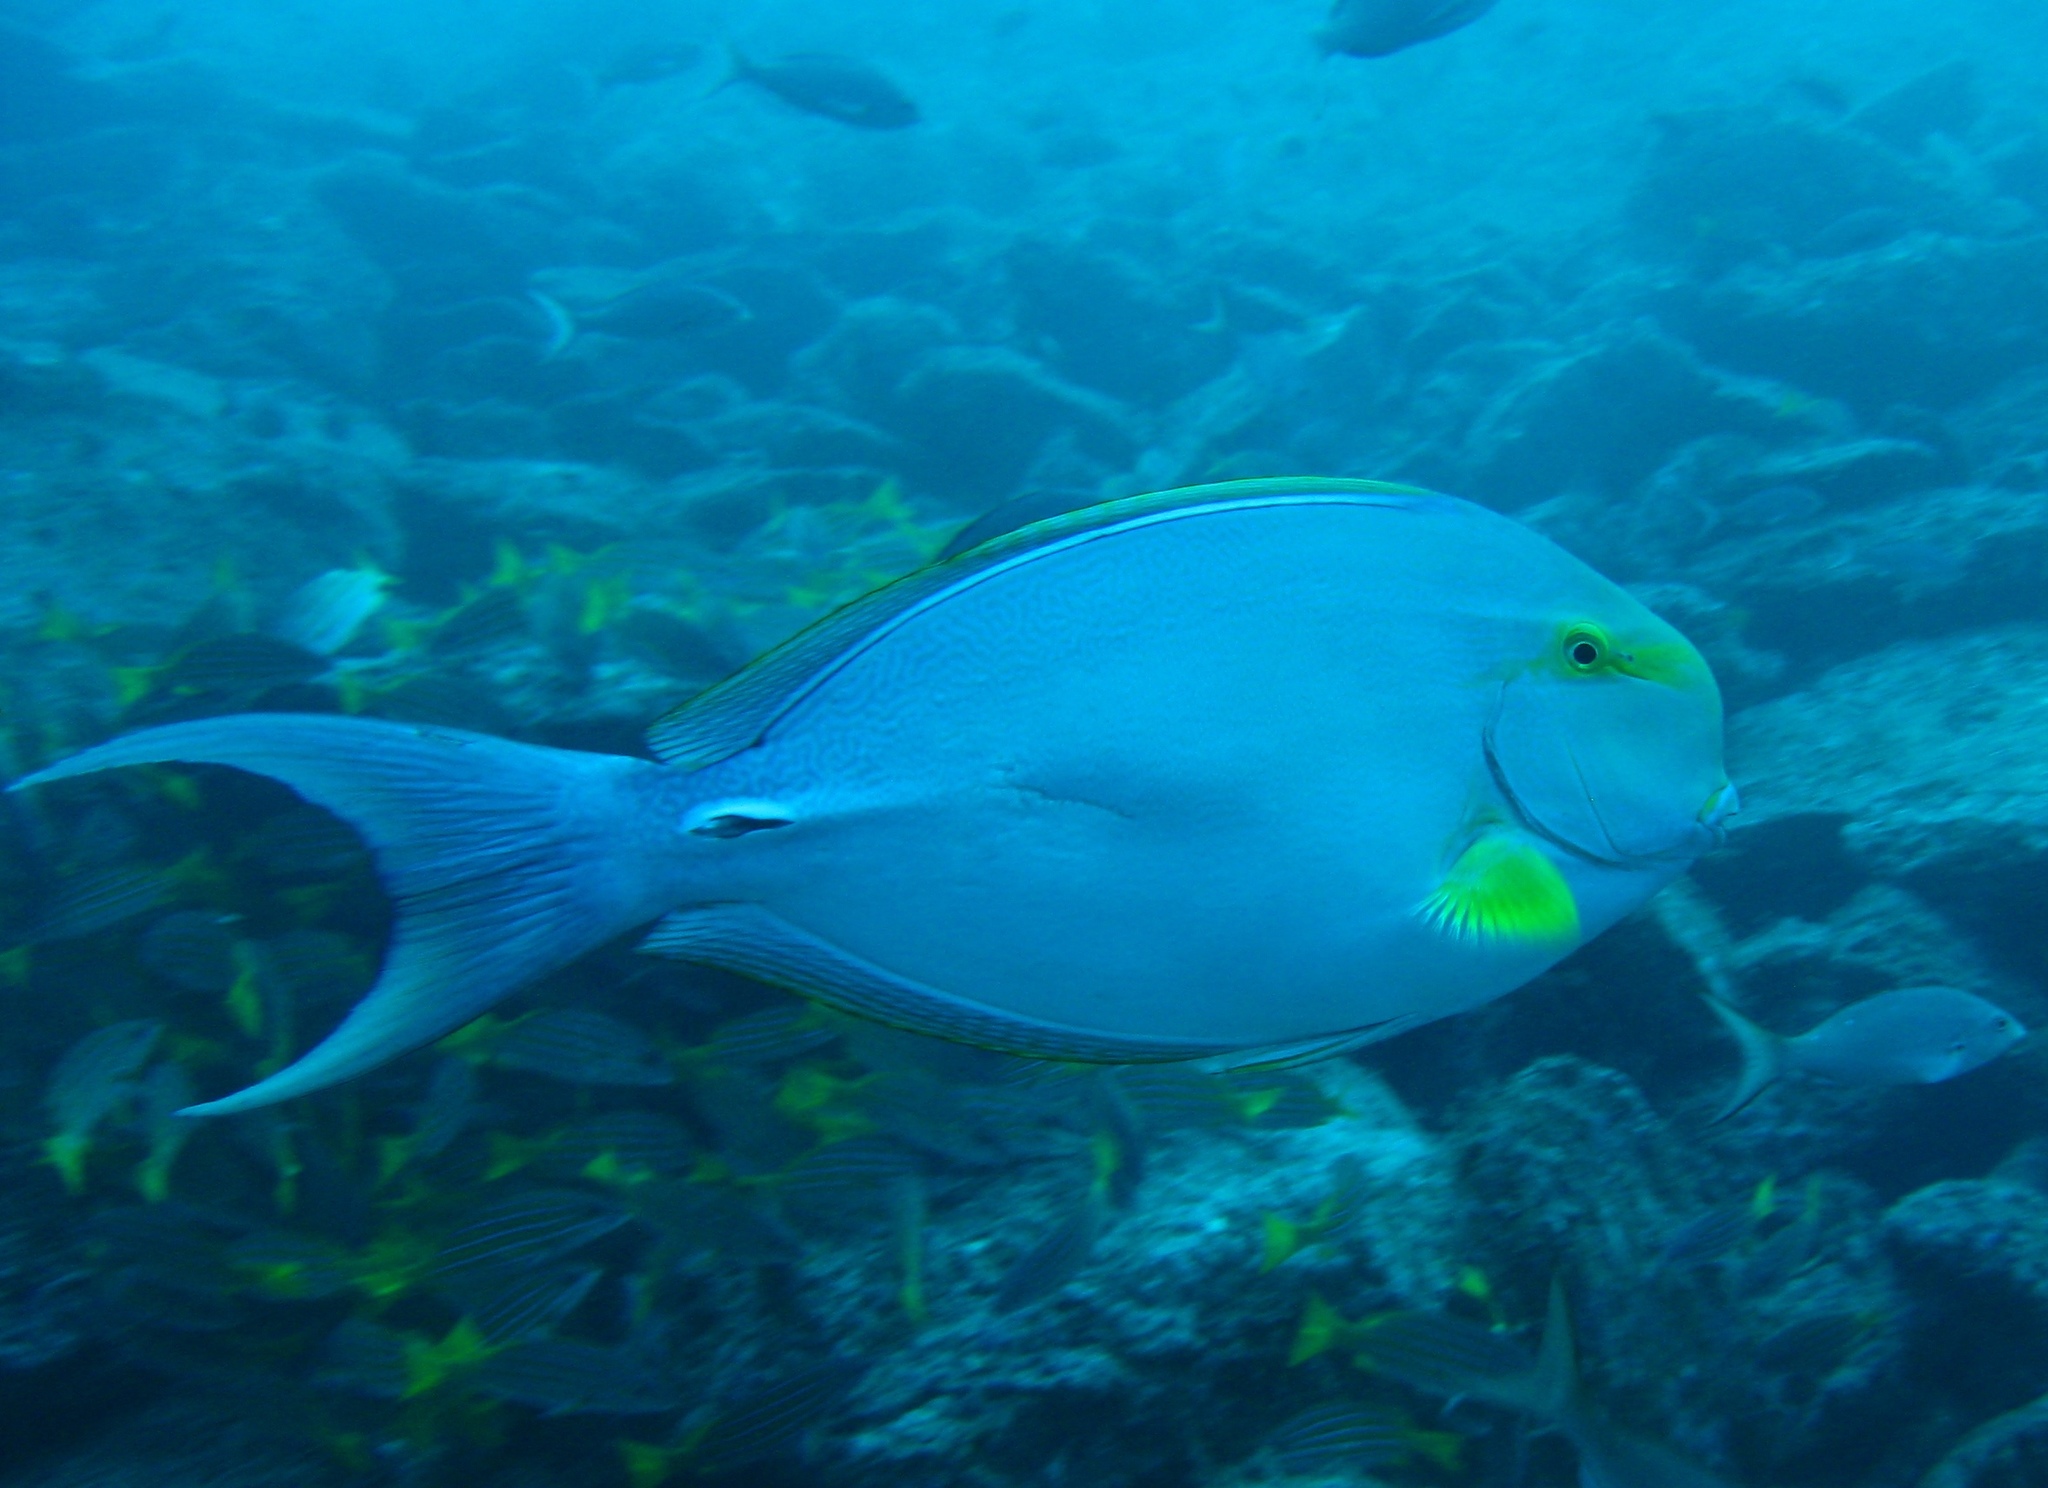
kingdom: Animalia
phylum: Chordata
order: Perciformes
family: Acanthuridae
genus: Acanthurus
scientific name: Acanthurus xanthopterus
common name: Cuvier's surgeonfish
